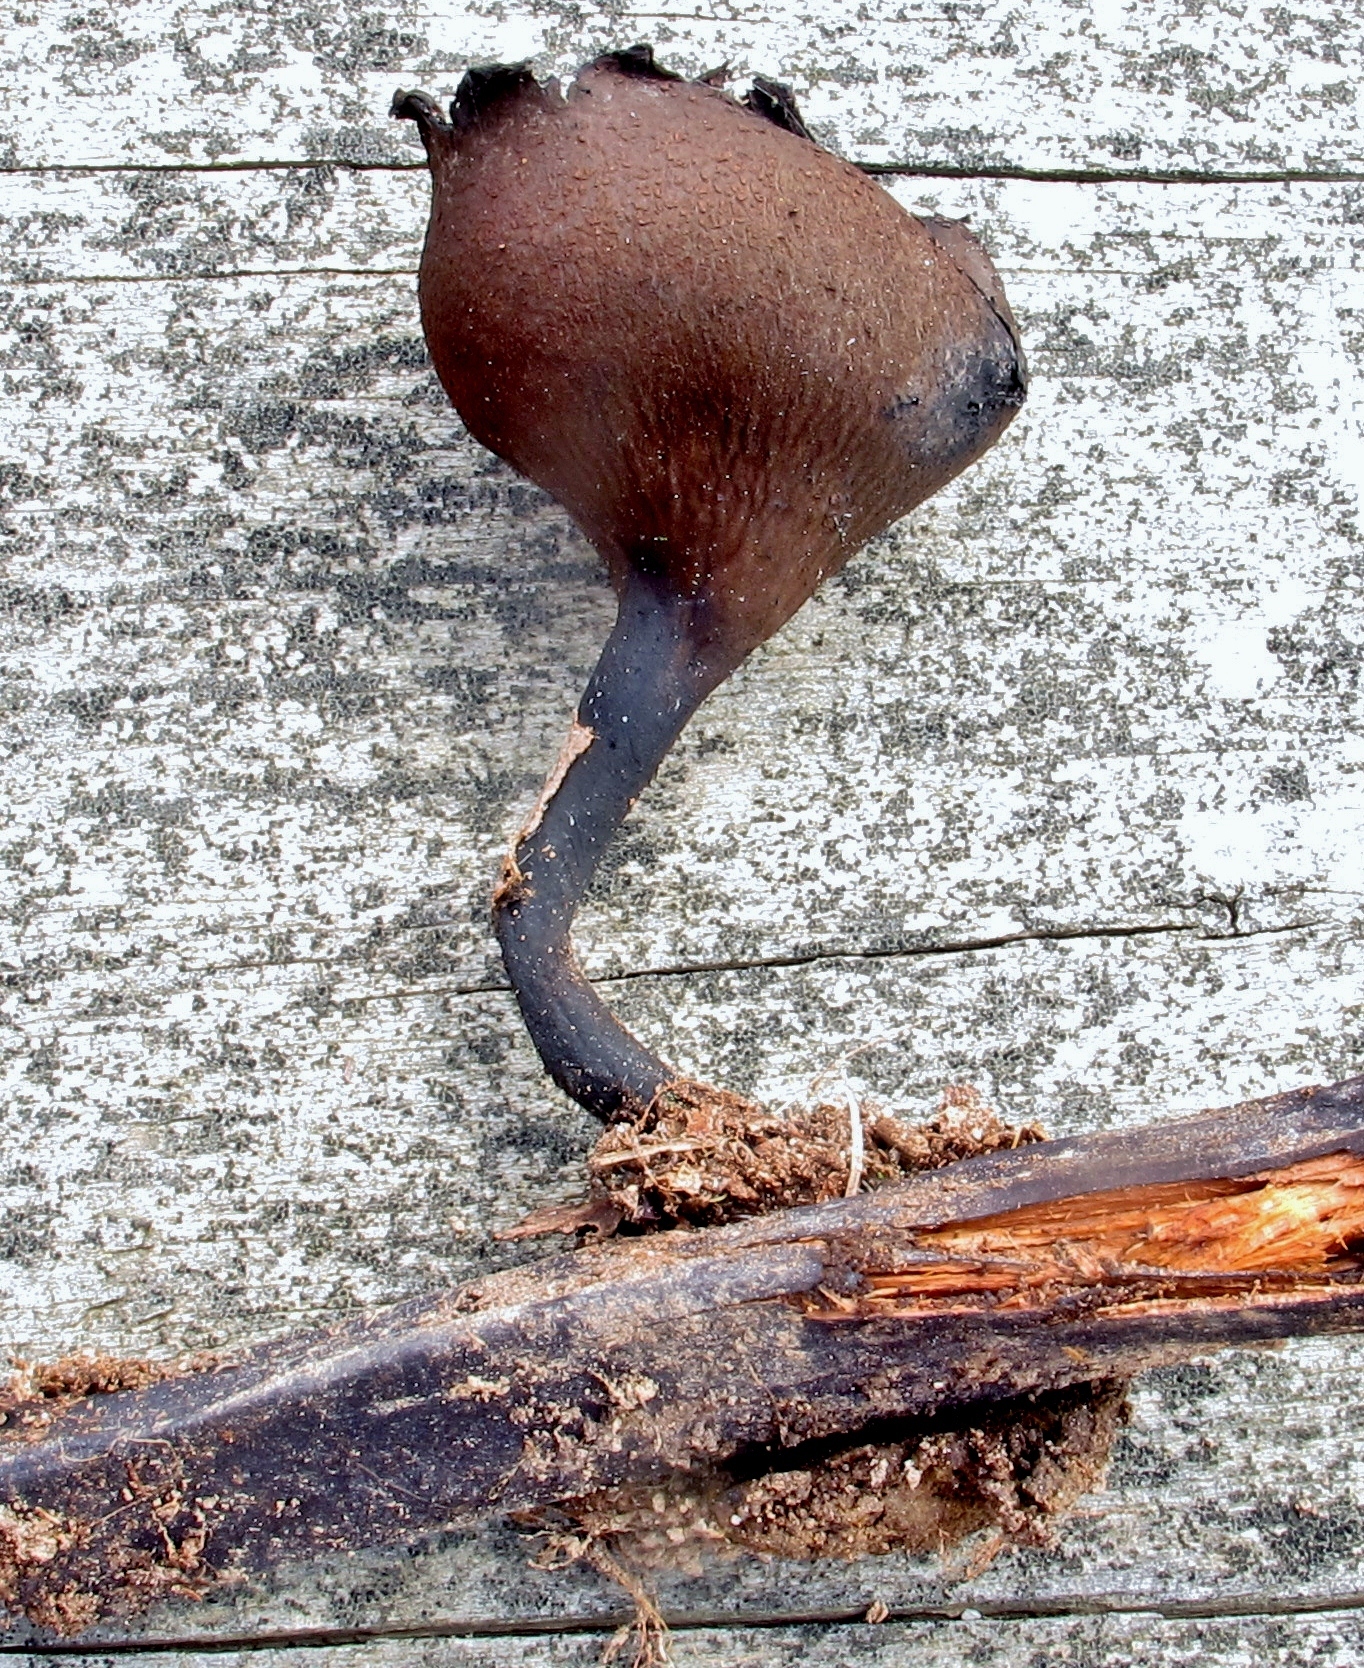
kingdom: Fungi
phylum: Ascomycota
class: Pezizomycetes
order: Pezizales
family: Sarcosomataceae
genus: Urnula
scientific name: Urnula craterium
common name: Devil's urn
